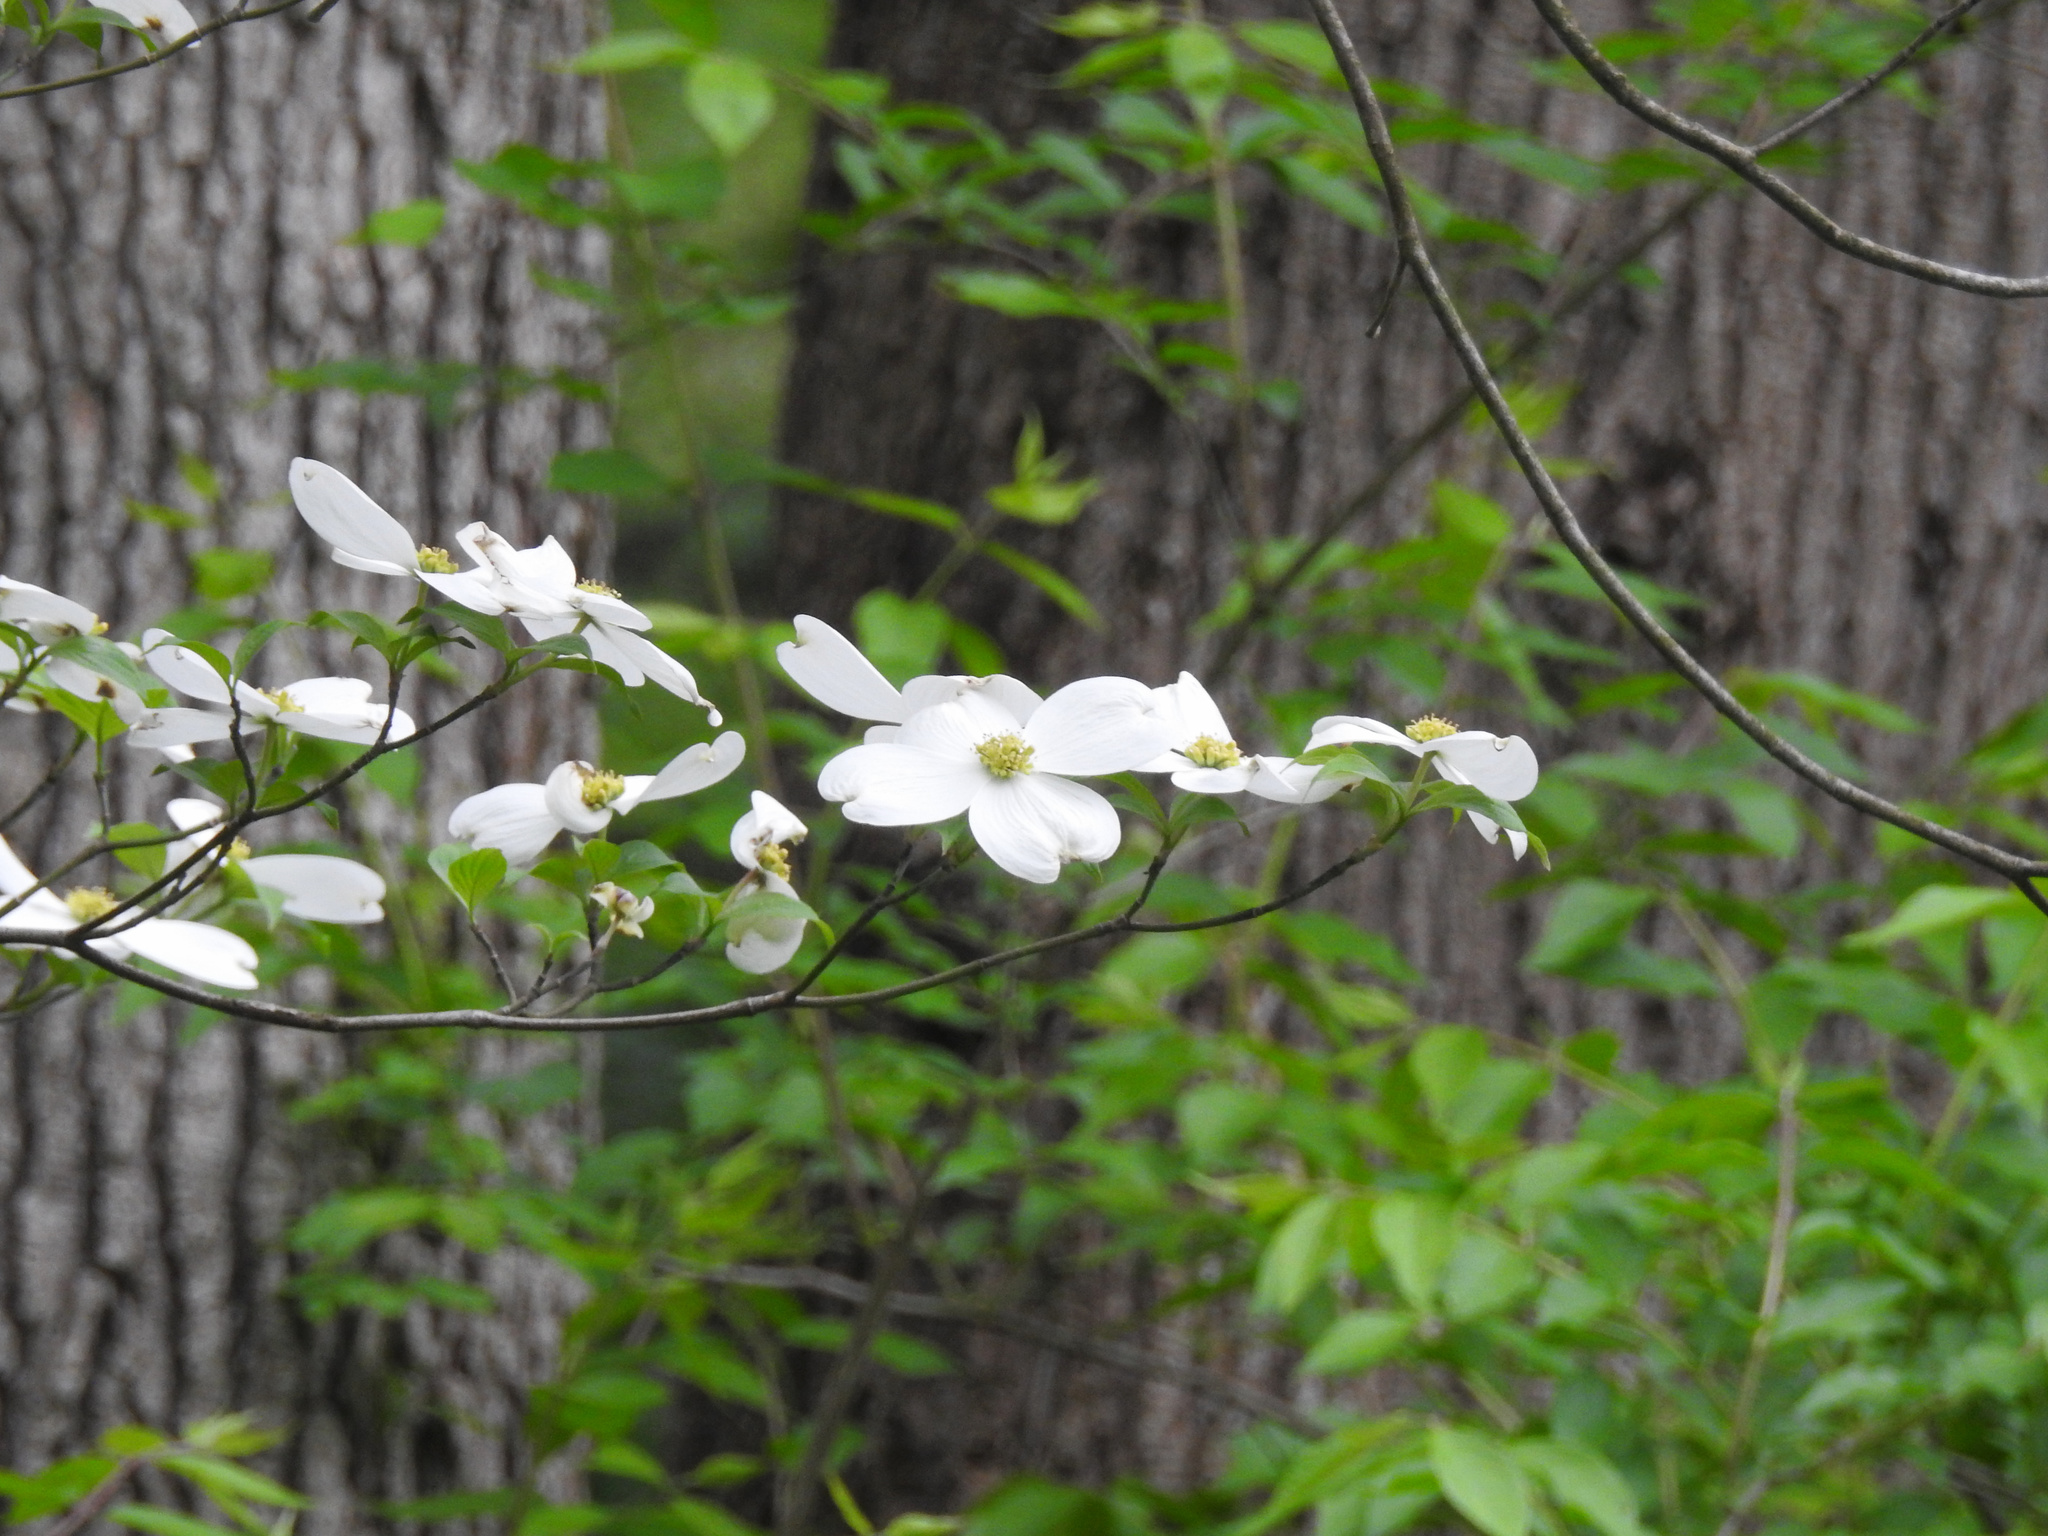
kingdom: Plantae
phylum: Tracheophyta
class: Magnoliopsida
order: Cornales
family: Cornaceae
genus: Cornus
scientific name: Cornus florida
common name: Flowering dogwood
